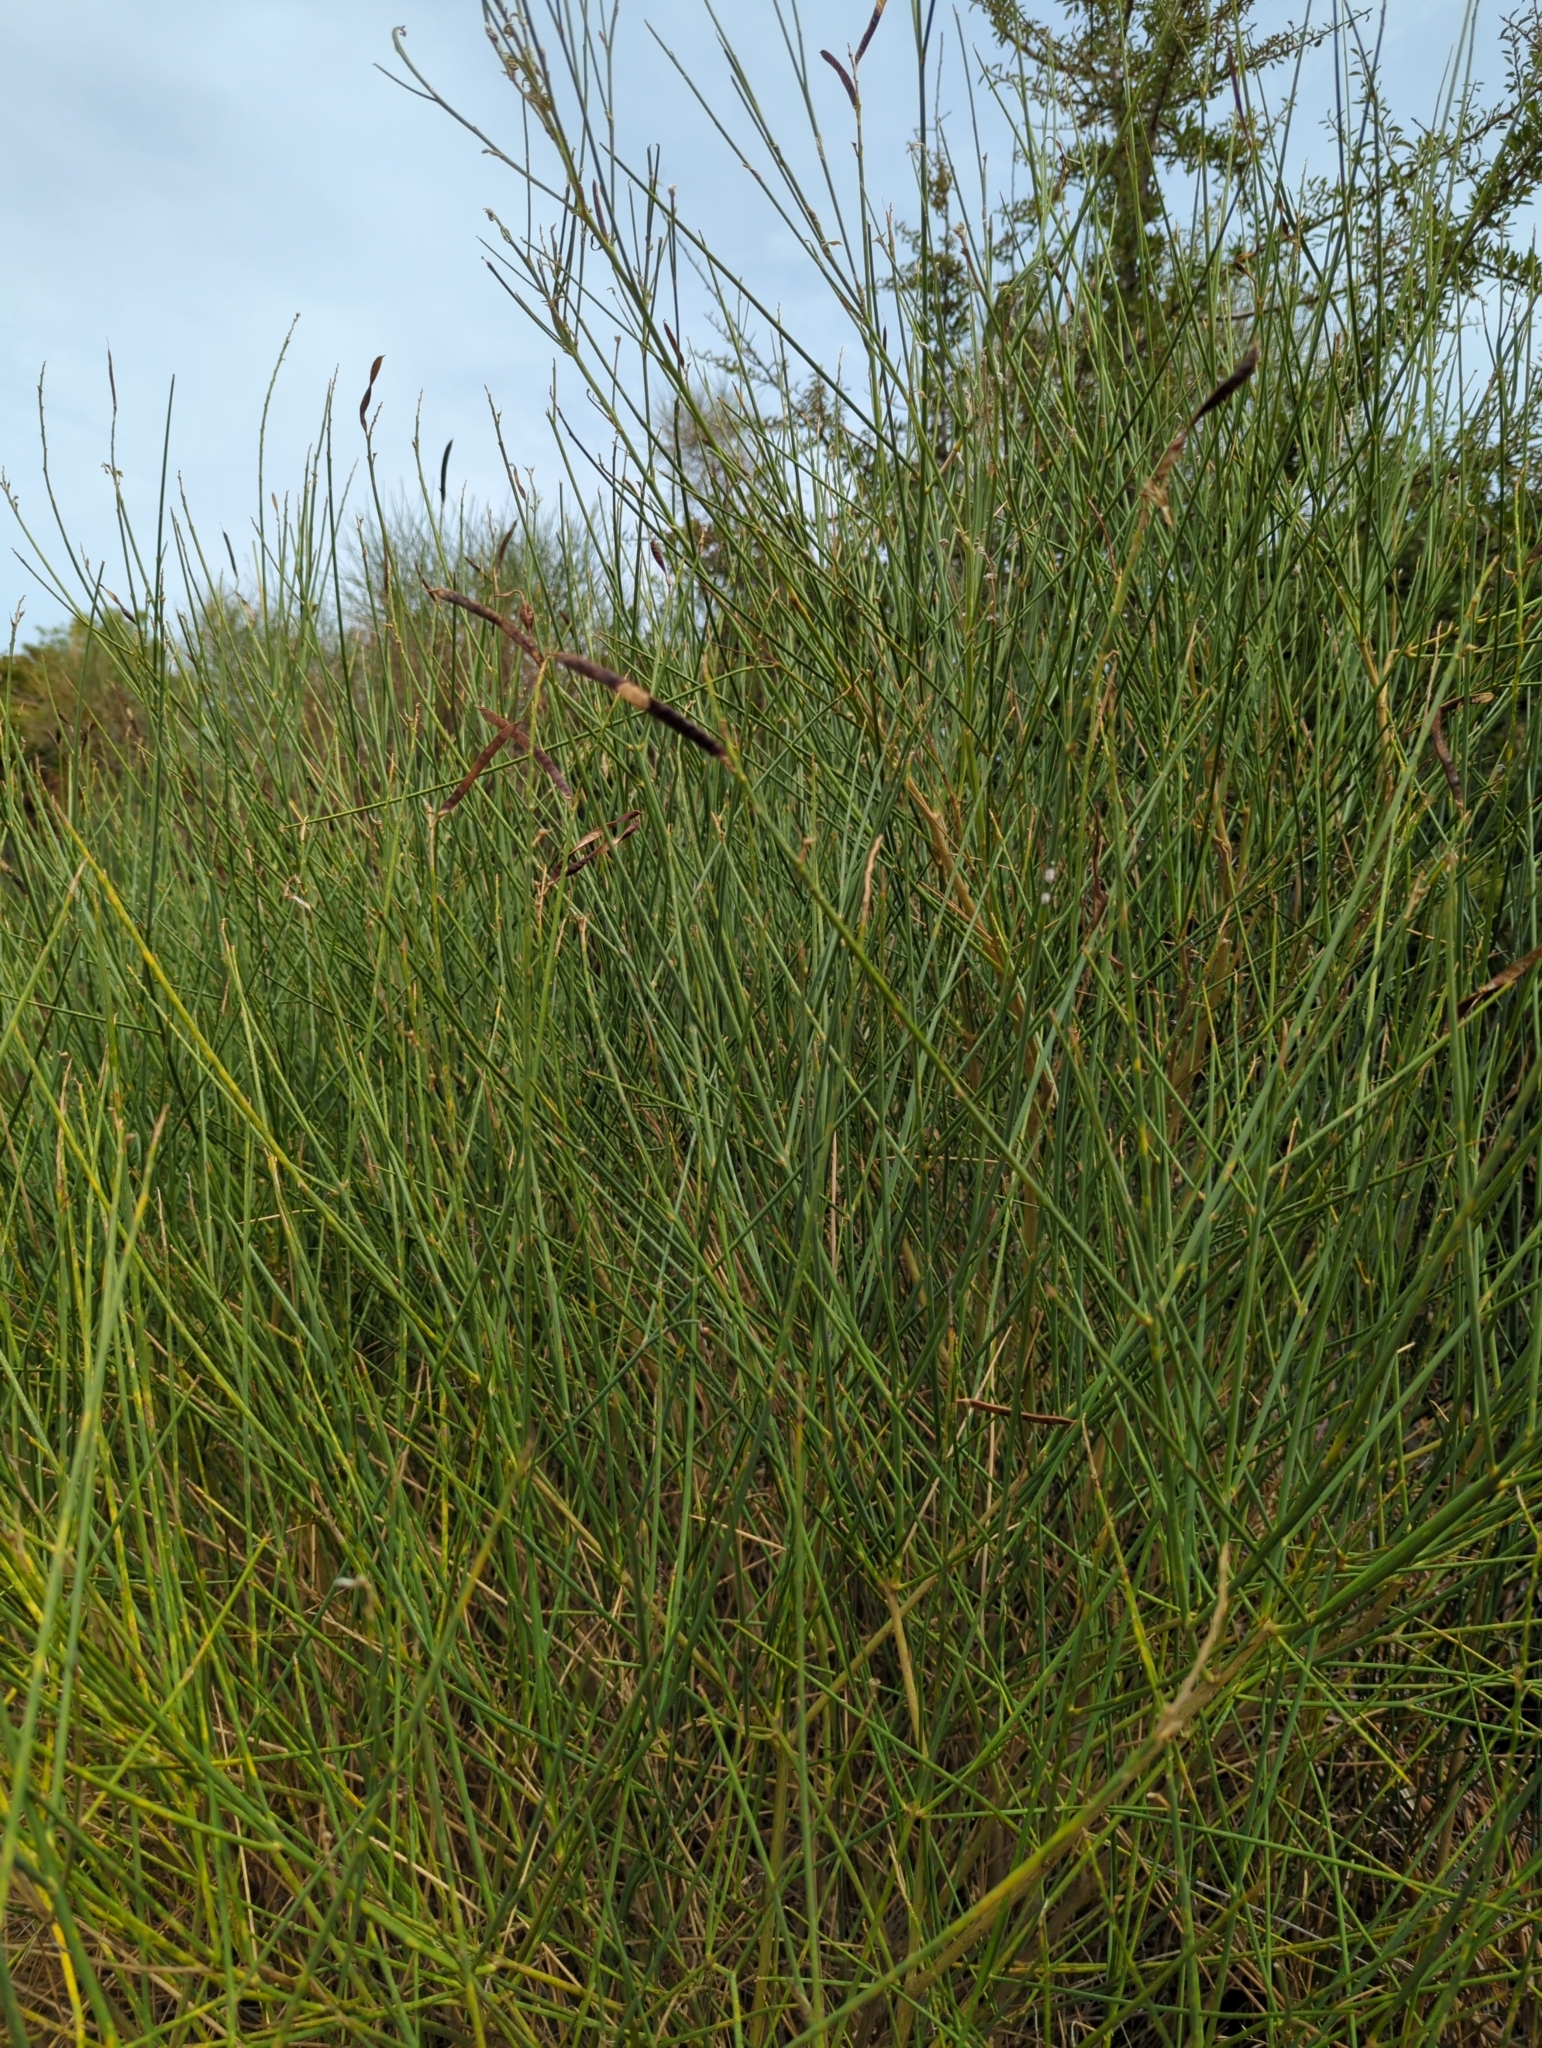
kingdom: Plantae
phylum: Tracheophyta
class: Magnoliopsida
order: Fabales
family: Fabaceae
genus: Spartium
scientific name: Spartium junceum
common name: Spanish broom
